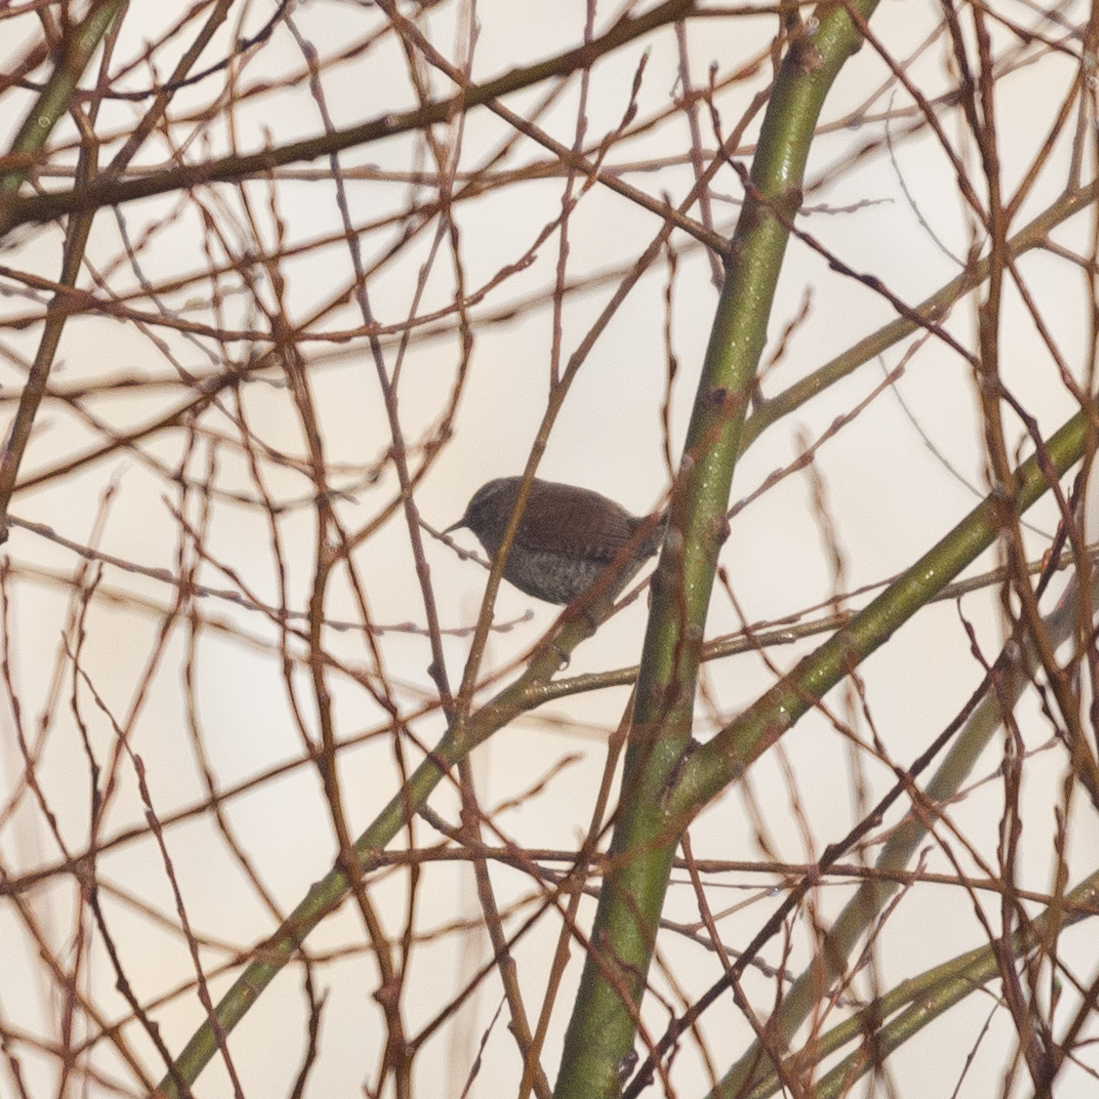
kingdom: Animalia
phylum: Chordata
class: Aves
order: Passeriformes
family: Troglodytidae
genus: Troglodytes
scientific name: Troglodytes troglodytes
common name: Eurasian wren
